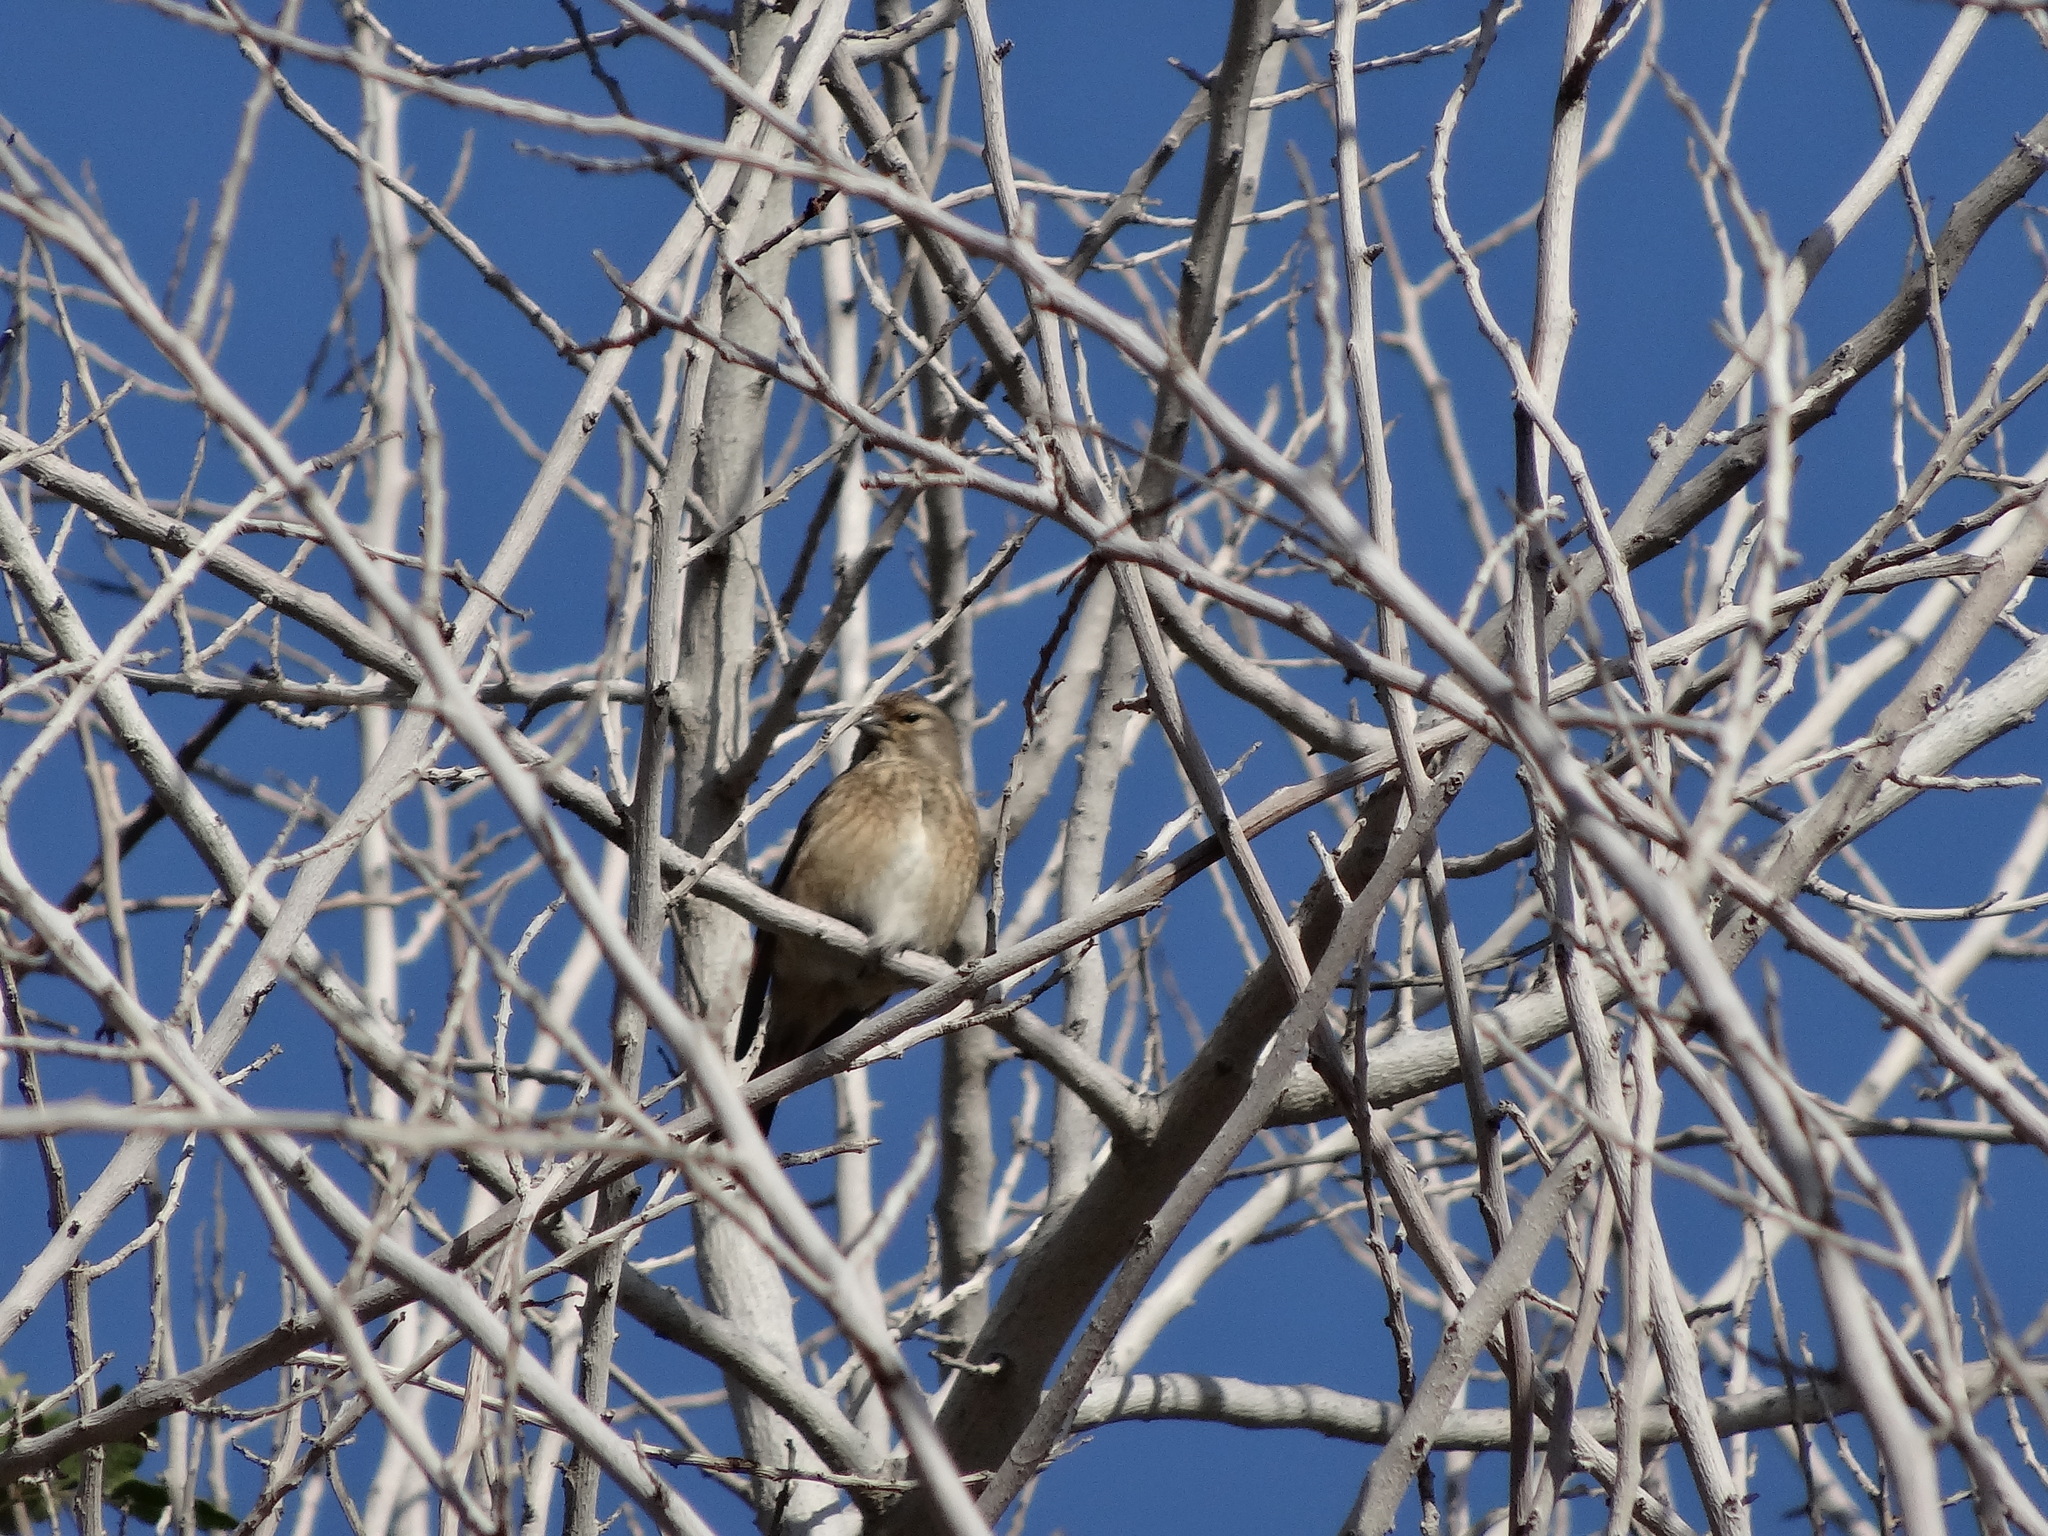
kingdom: Animalia
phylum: Chordata
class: Aves
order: Passeriformes
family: Fringillidae
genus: Linaria
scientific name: Linaria cannabina
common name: Common linnet
